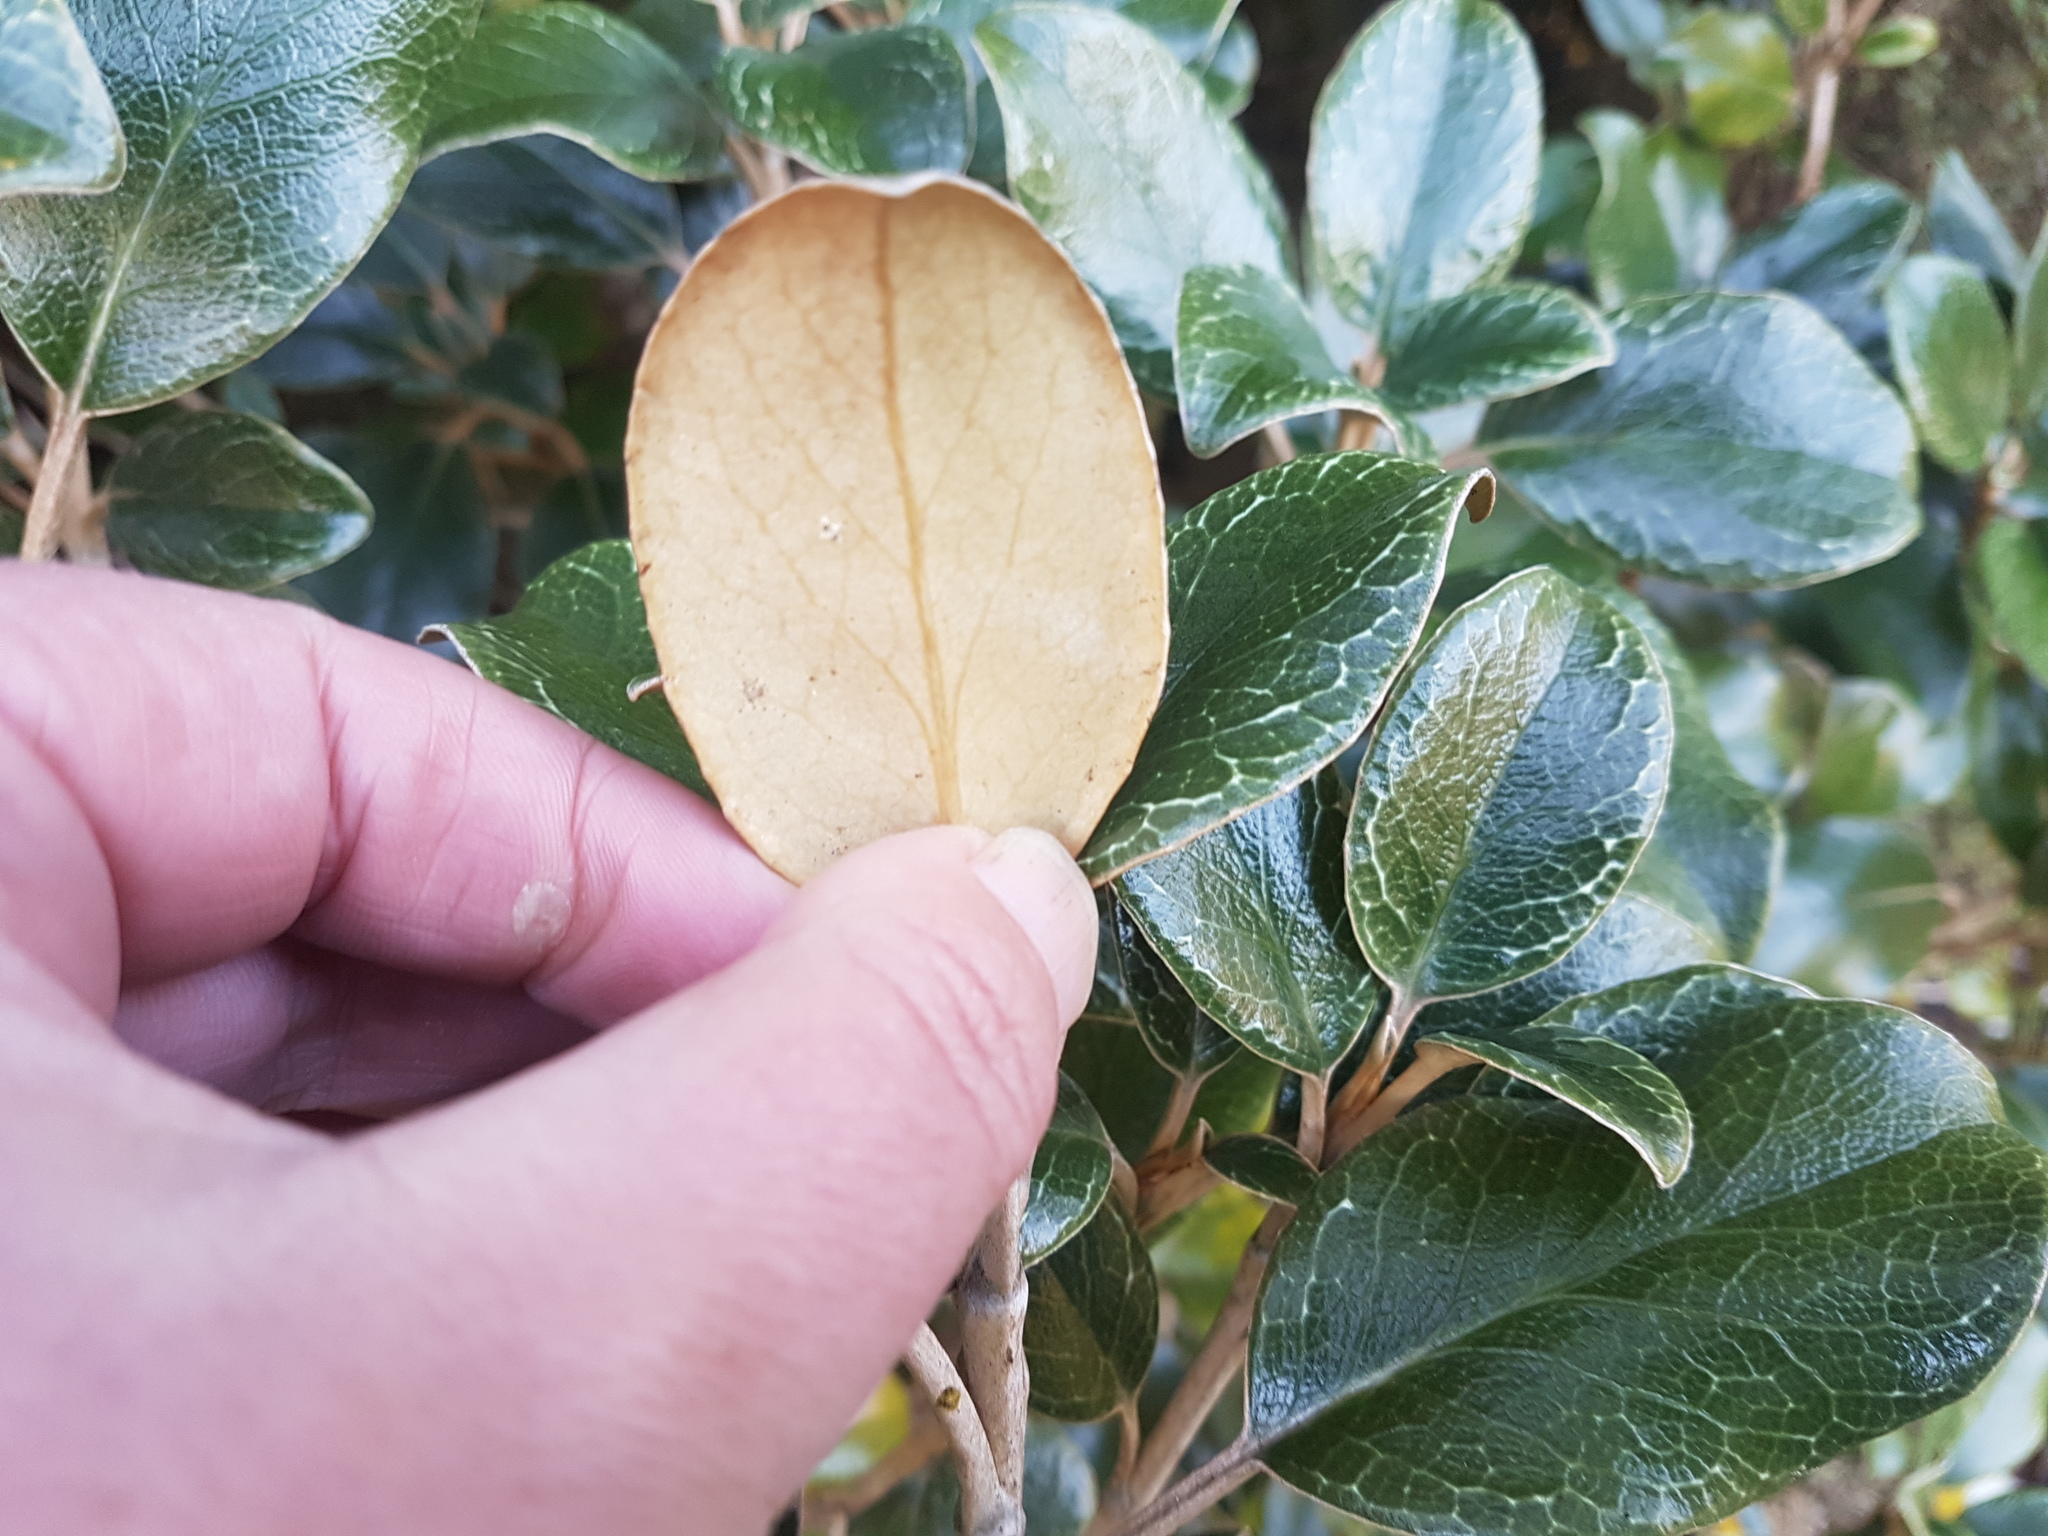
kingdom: Plantae
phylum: Tracheophyta
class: Magnoliopsida
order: Asterales
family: Asteraceae
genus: Brachyglottis
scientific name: Brachyglottis elaeagnifolia
